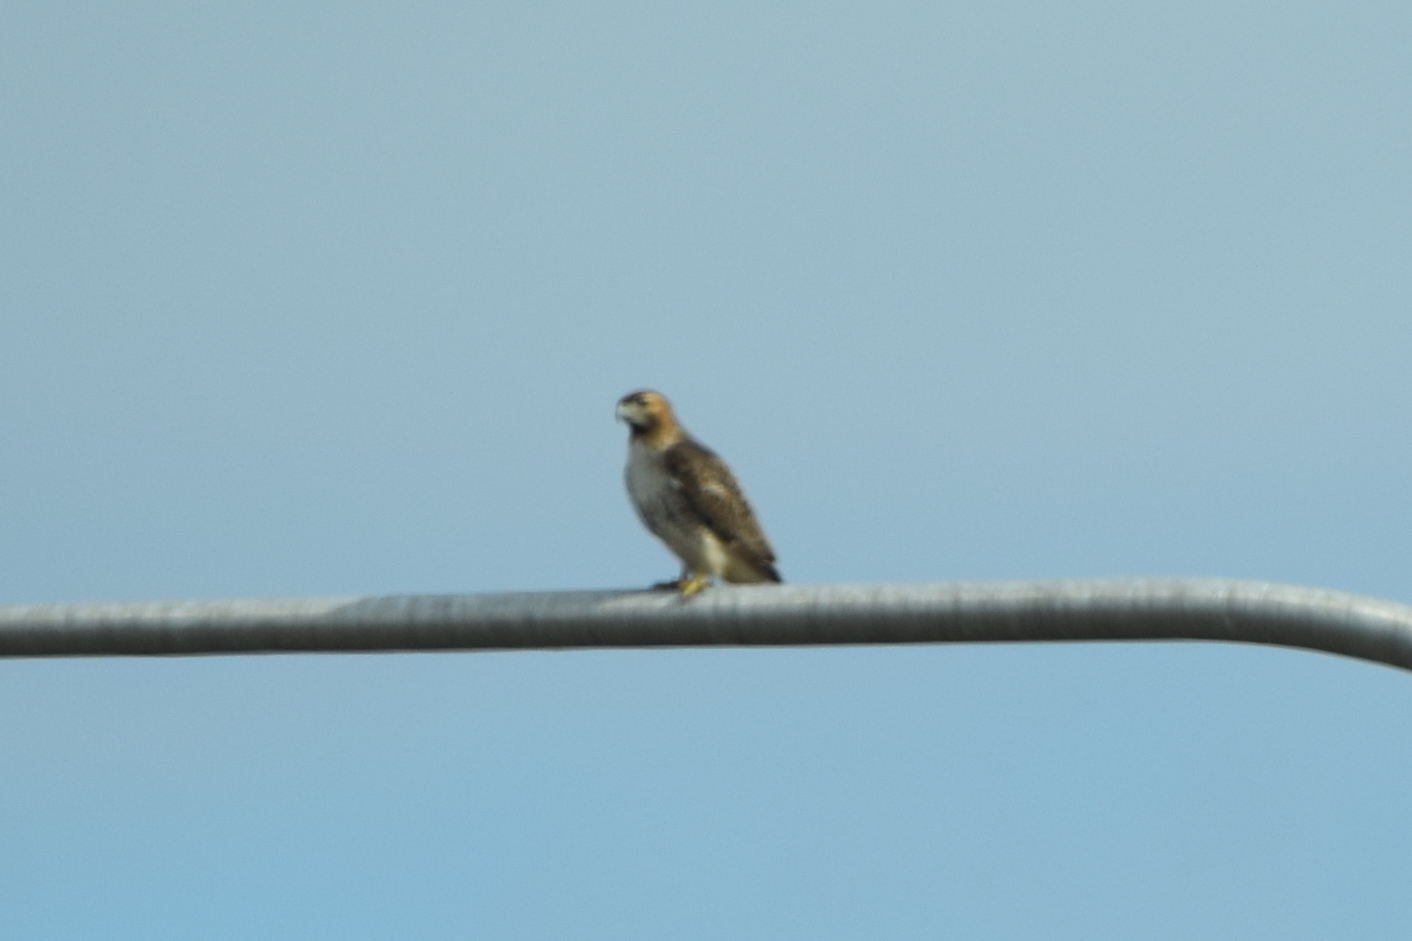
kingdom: Animalia
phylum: Chordata
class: Aves
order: Accipitriformes
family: Accipitridae
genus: Buteo
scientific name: Buteo jamaicensis
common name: Red-tailed hawk
